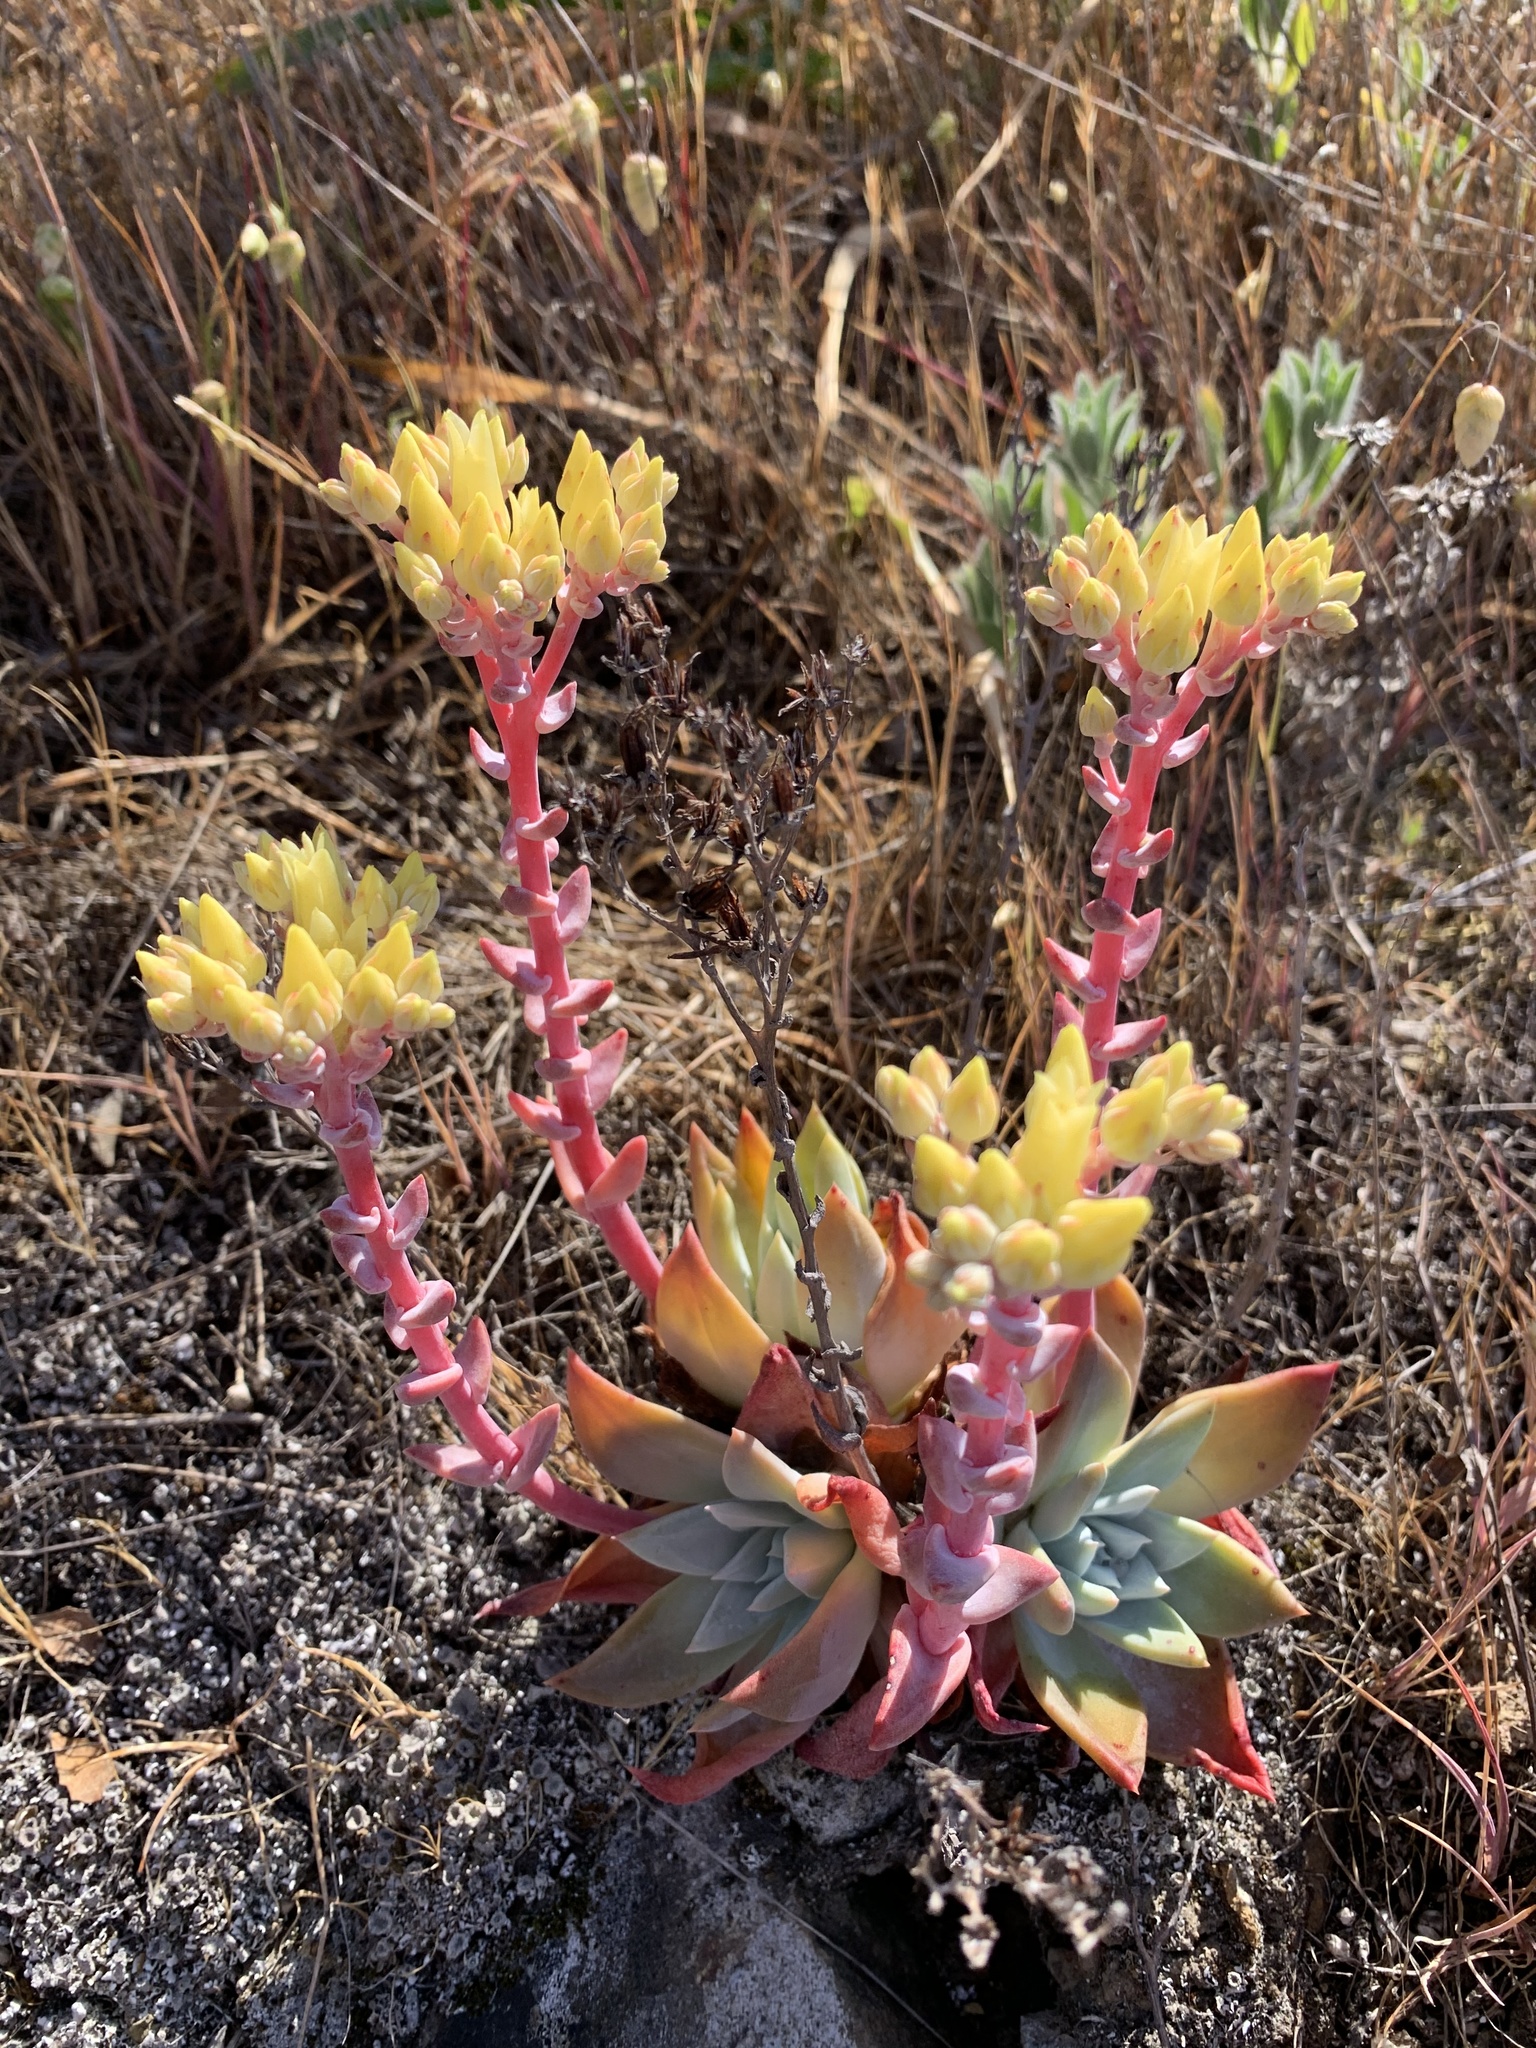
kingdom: Plantae
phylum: Tracheophyta
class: Magnoliopsida
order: Saxifragales
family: Crassulaceae
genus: Dudleya
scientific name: Dudleya farinosa
